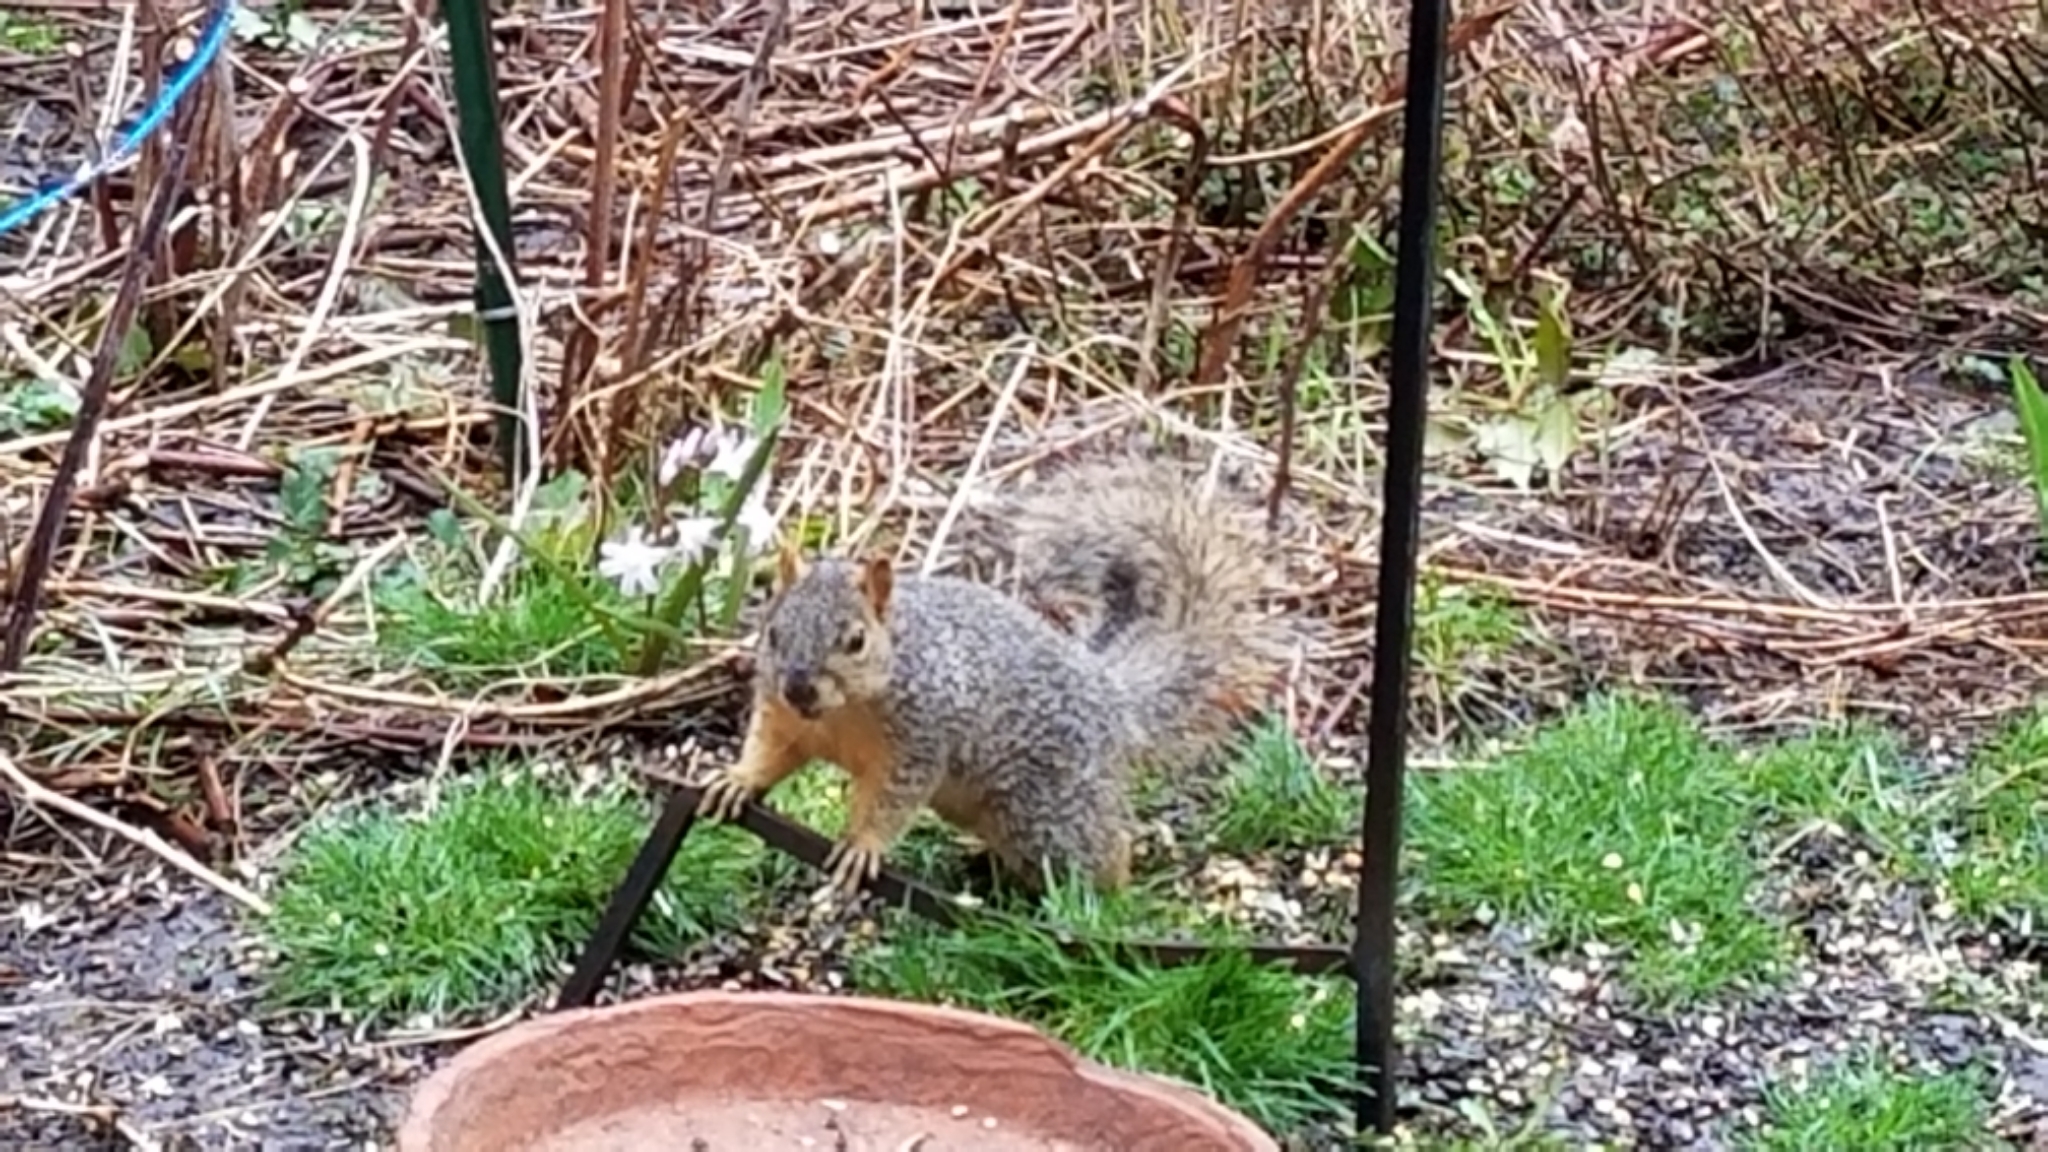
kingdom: Animalia
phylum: Chordata
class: Mammalia
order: Rodentia
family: Sciuridae
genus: Sciurus
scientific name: Sciurus niger
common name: Fox squirrel
